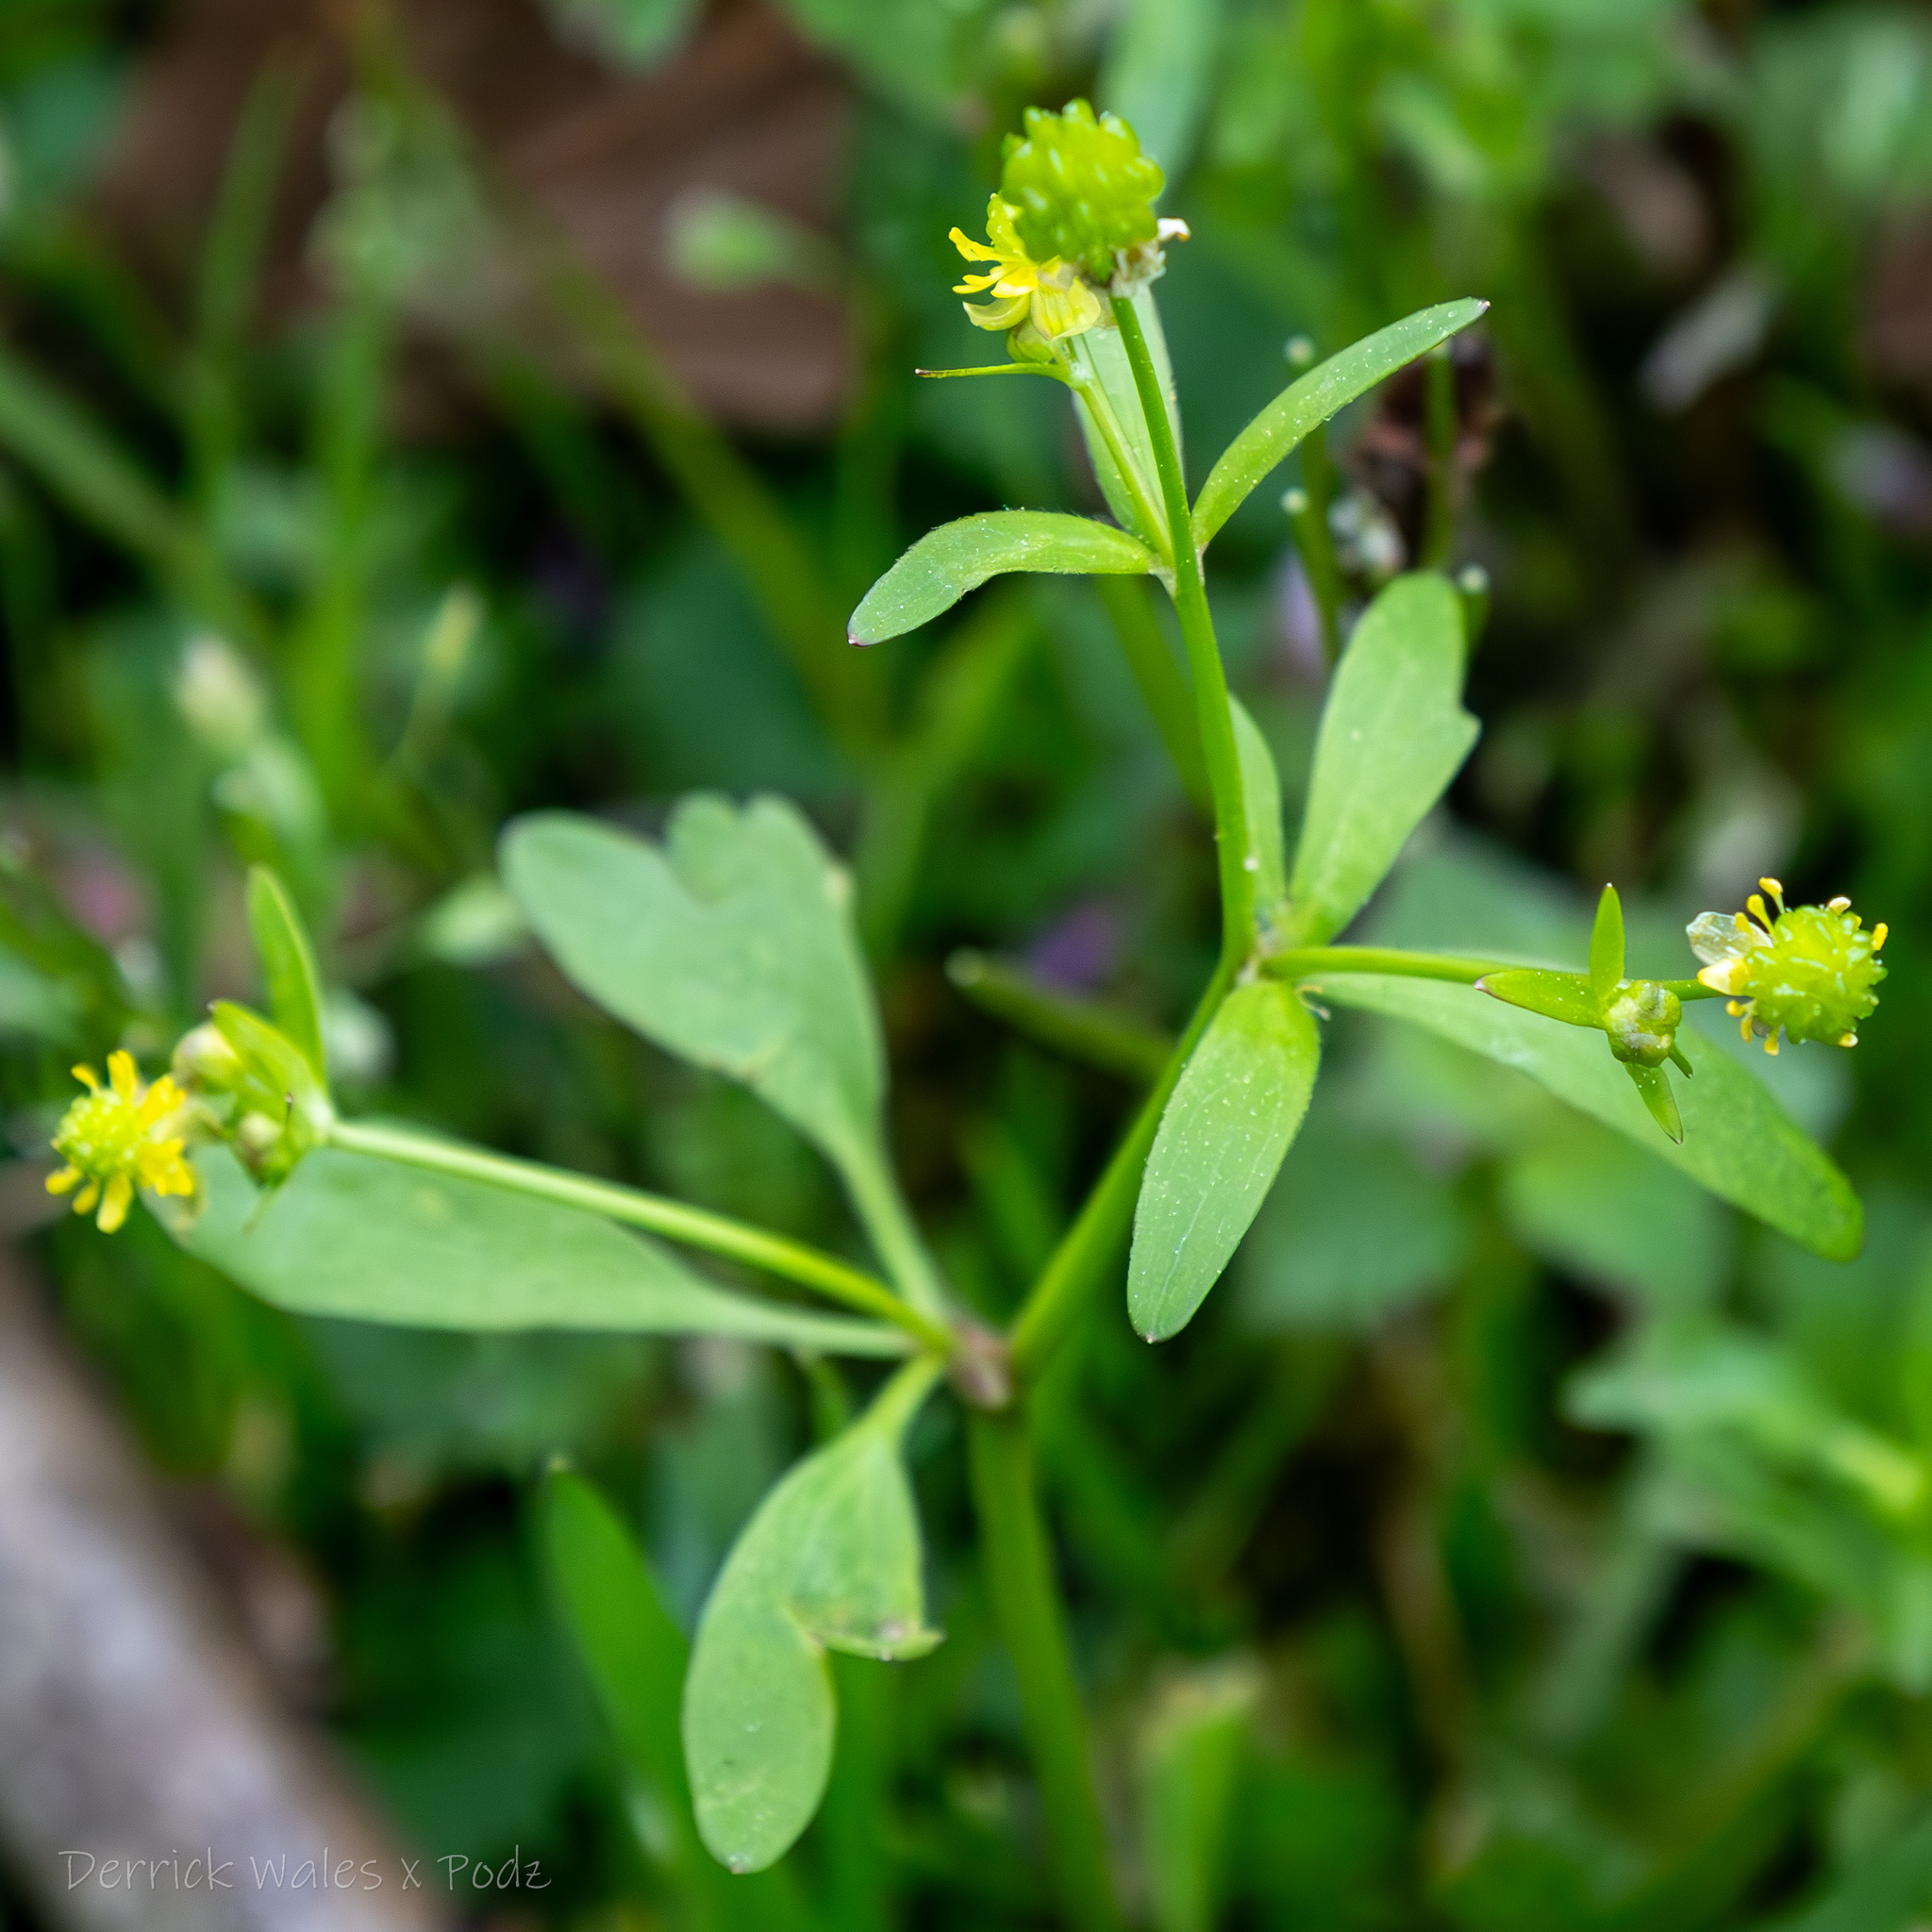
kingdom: Plantae
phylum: Tracheophyta
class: Magnoliopsida
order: Ranunculales
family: Ranunculaceae
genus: Ranunculus
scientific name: Ranunculus abortivus
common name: Early wood buttercup
